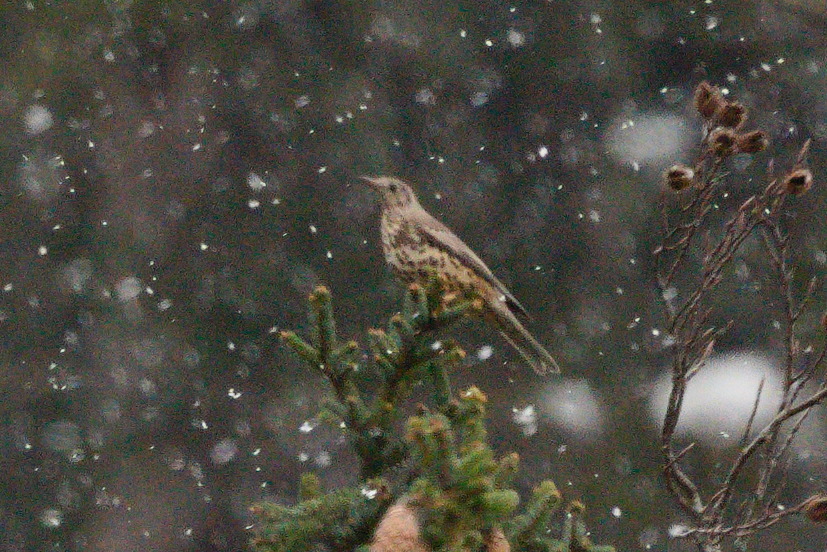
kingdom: Animalia
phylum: Chordata
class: Aves
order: Passeriformes
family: Turdidae
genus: Turdus
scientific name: Turdus viscivorus
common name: Mistle thrush
